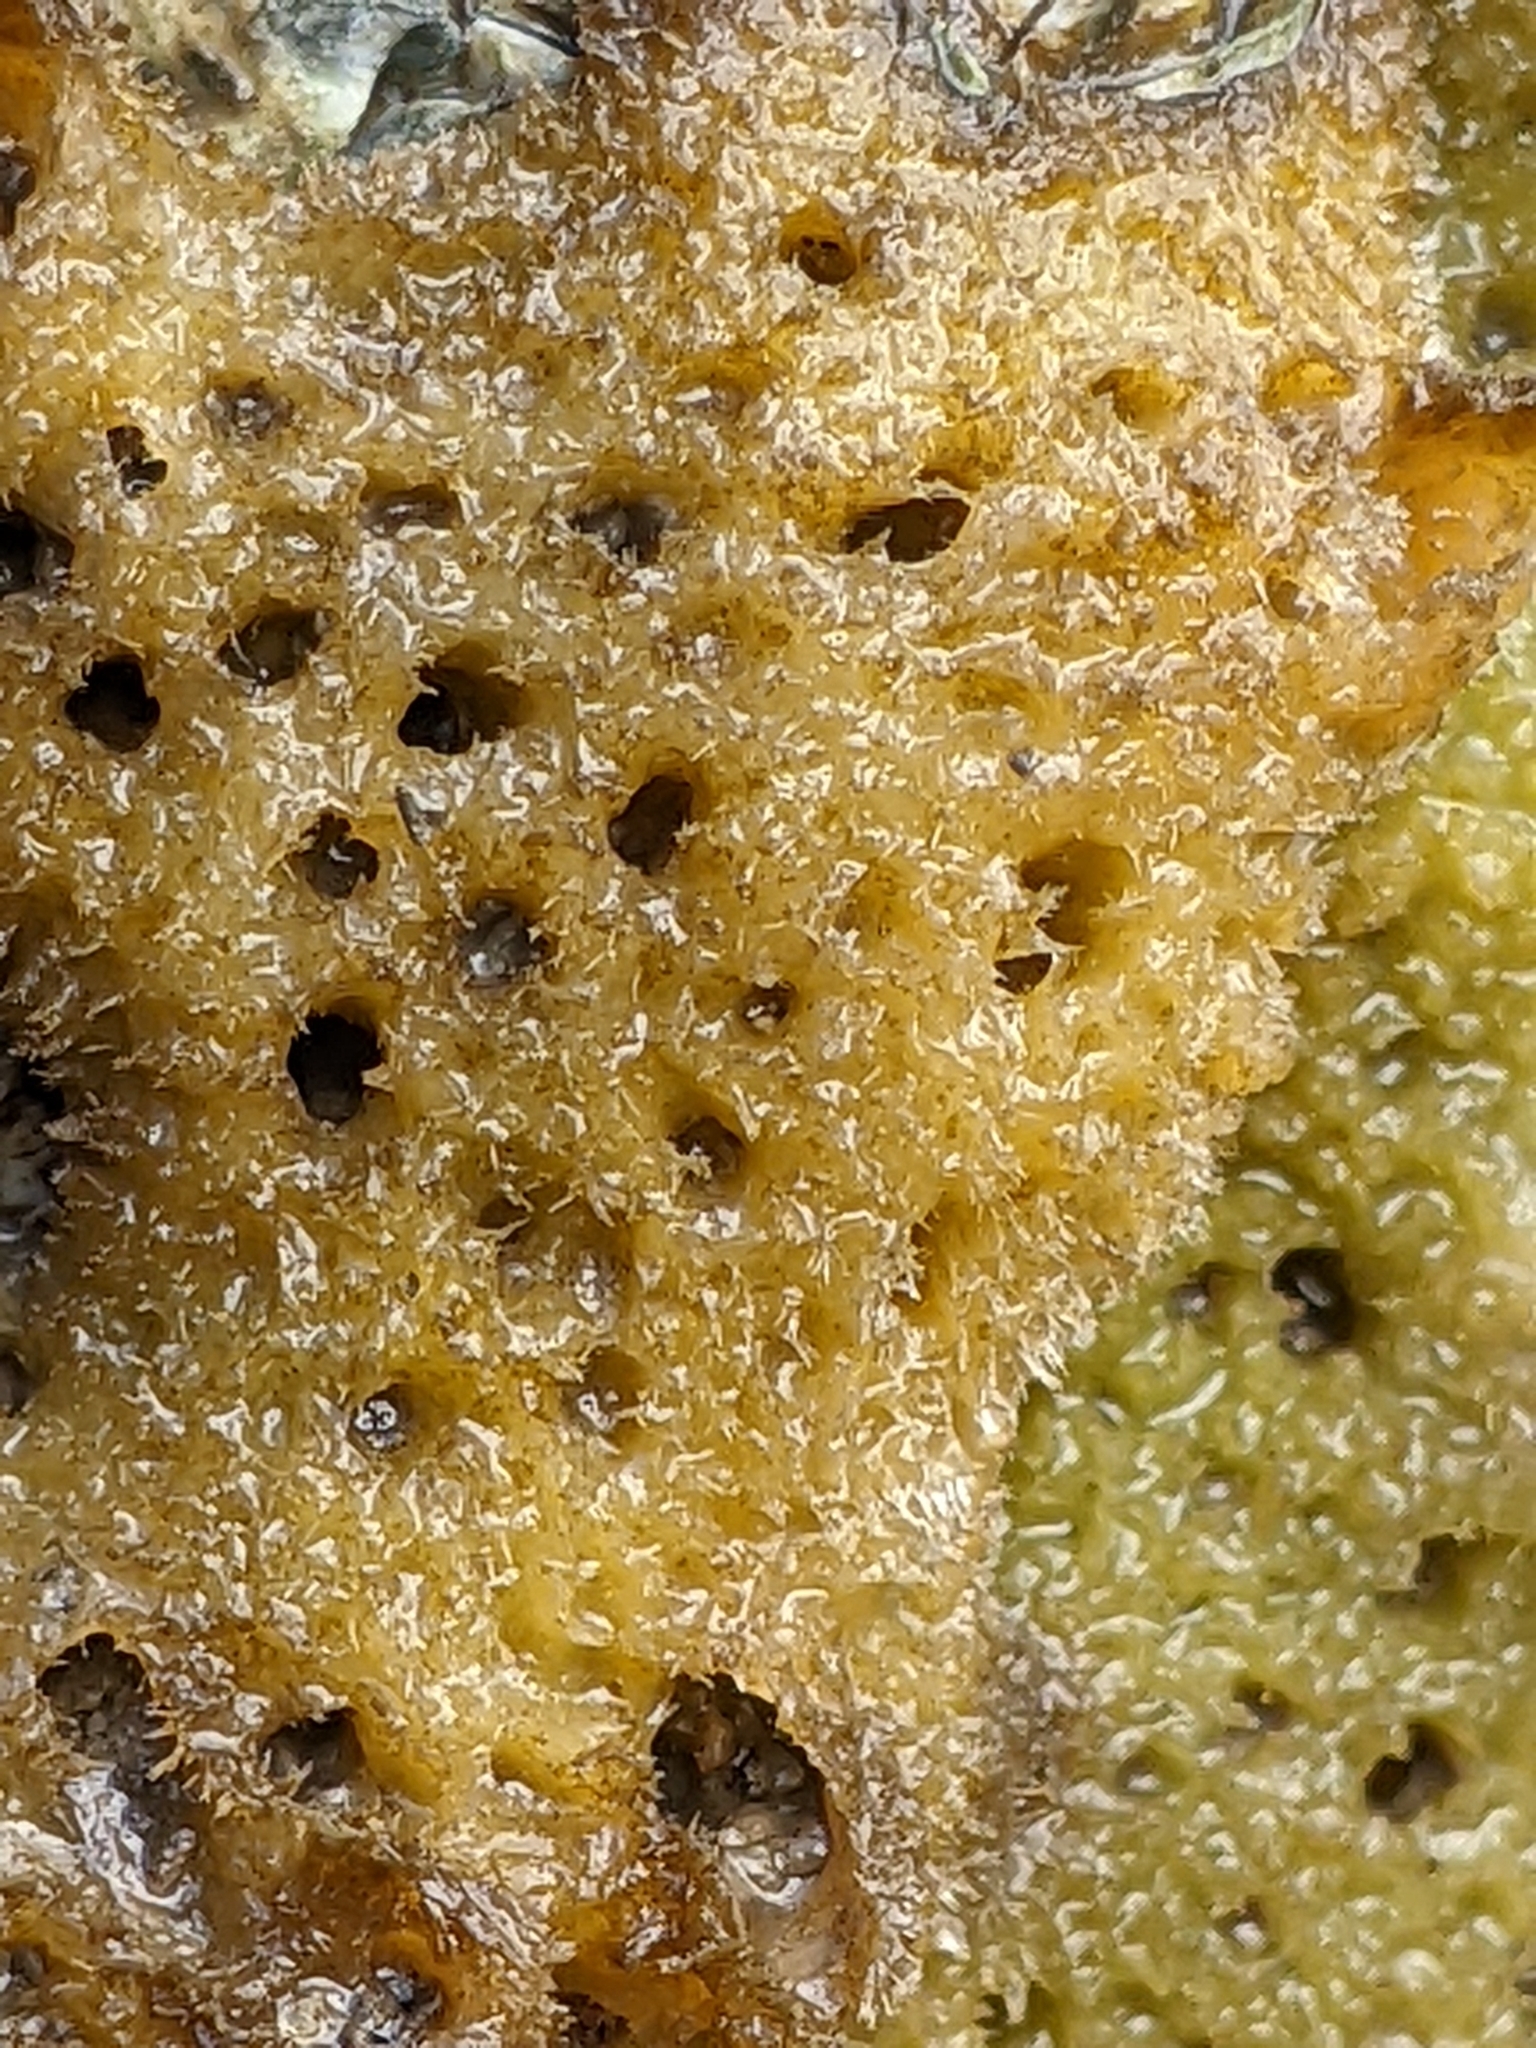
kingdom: Animalia
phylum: Porifera
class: Demospongiae
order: Suberitida
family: Halichondriidae
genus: Hymeniacidon
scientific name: Hymeniacidon perlevis
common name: Crumb-of-bread sponge
